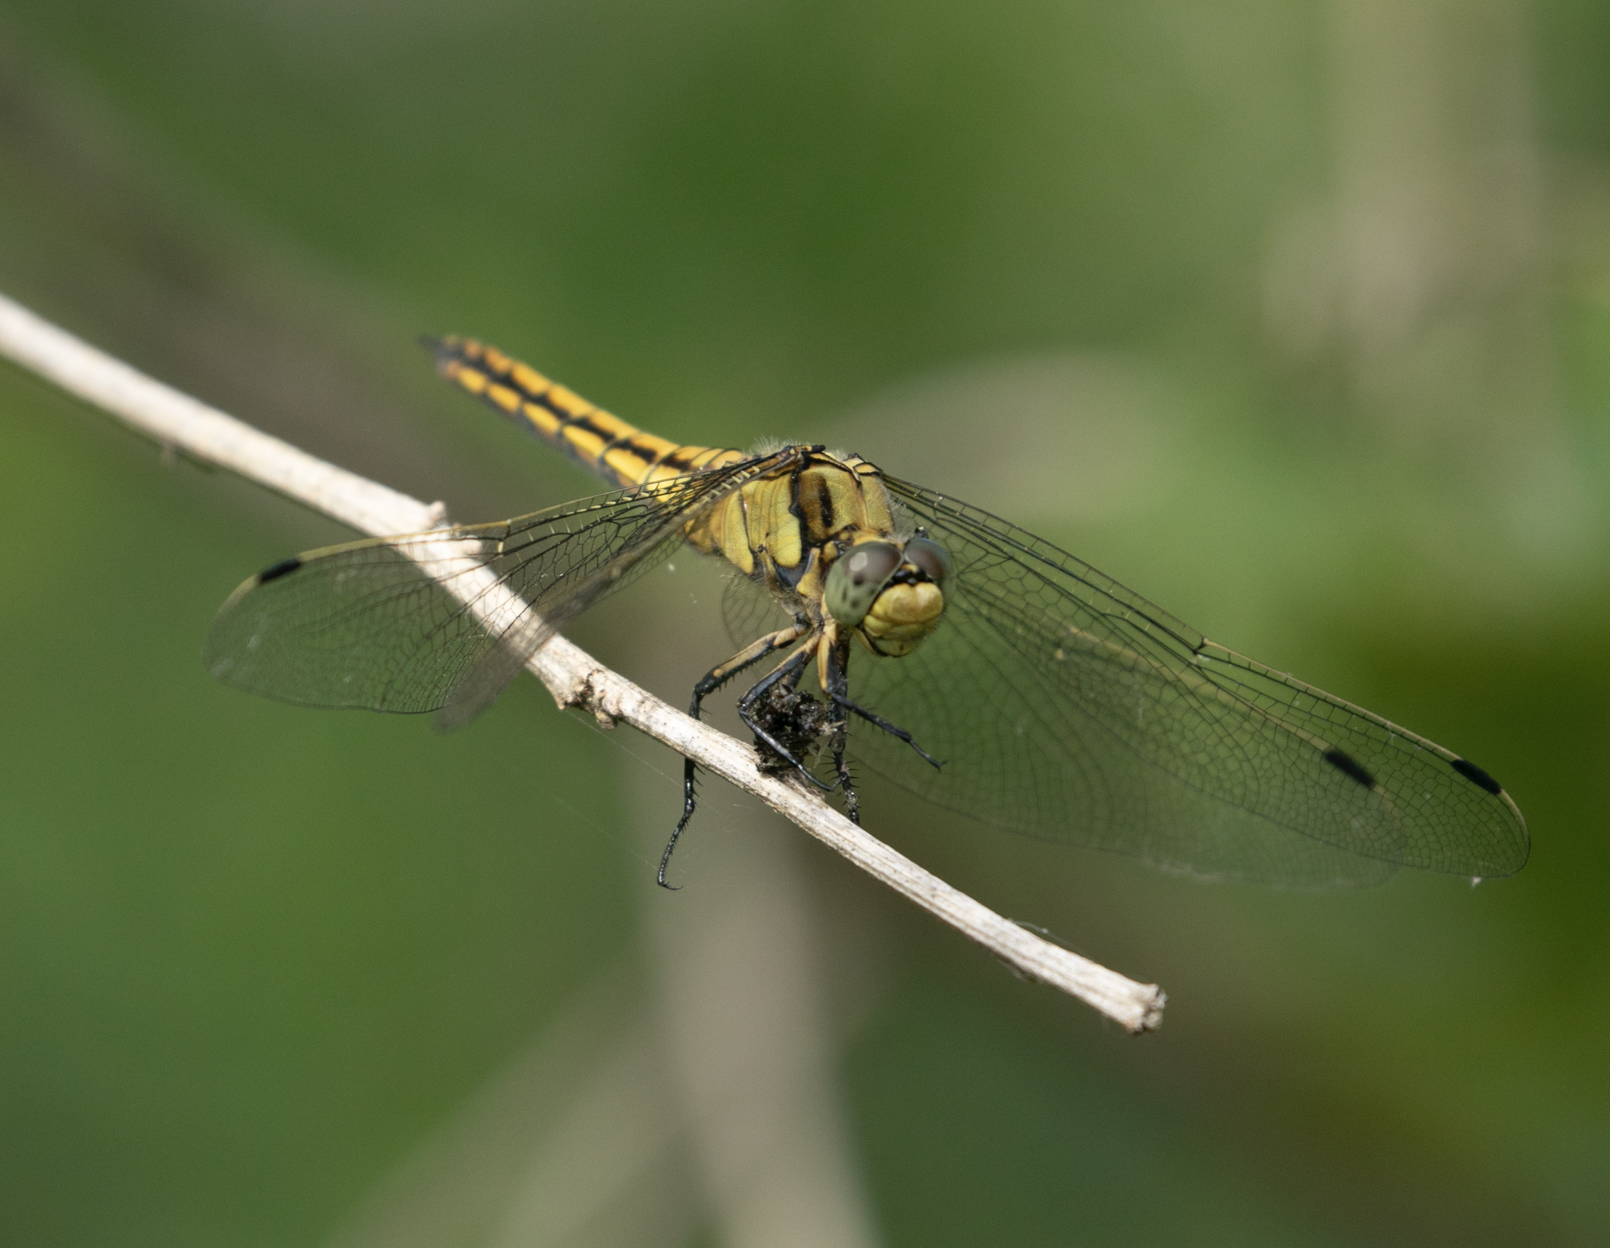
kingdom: Animalia
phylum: Arthropoda
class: Insecta
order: Odonata
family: Libellulidae
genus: Orthetrum
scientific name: Orthetrum cancellatum
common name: Black-tailed skimmer
